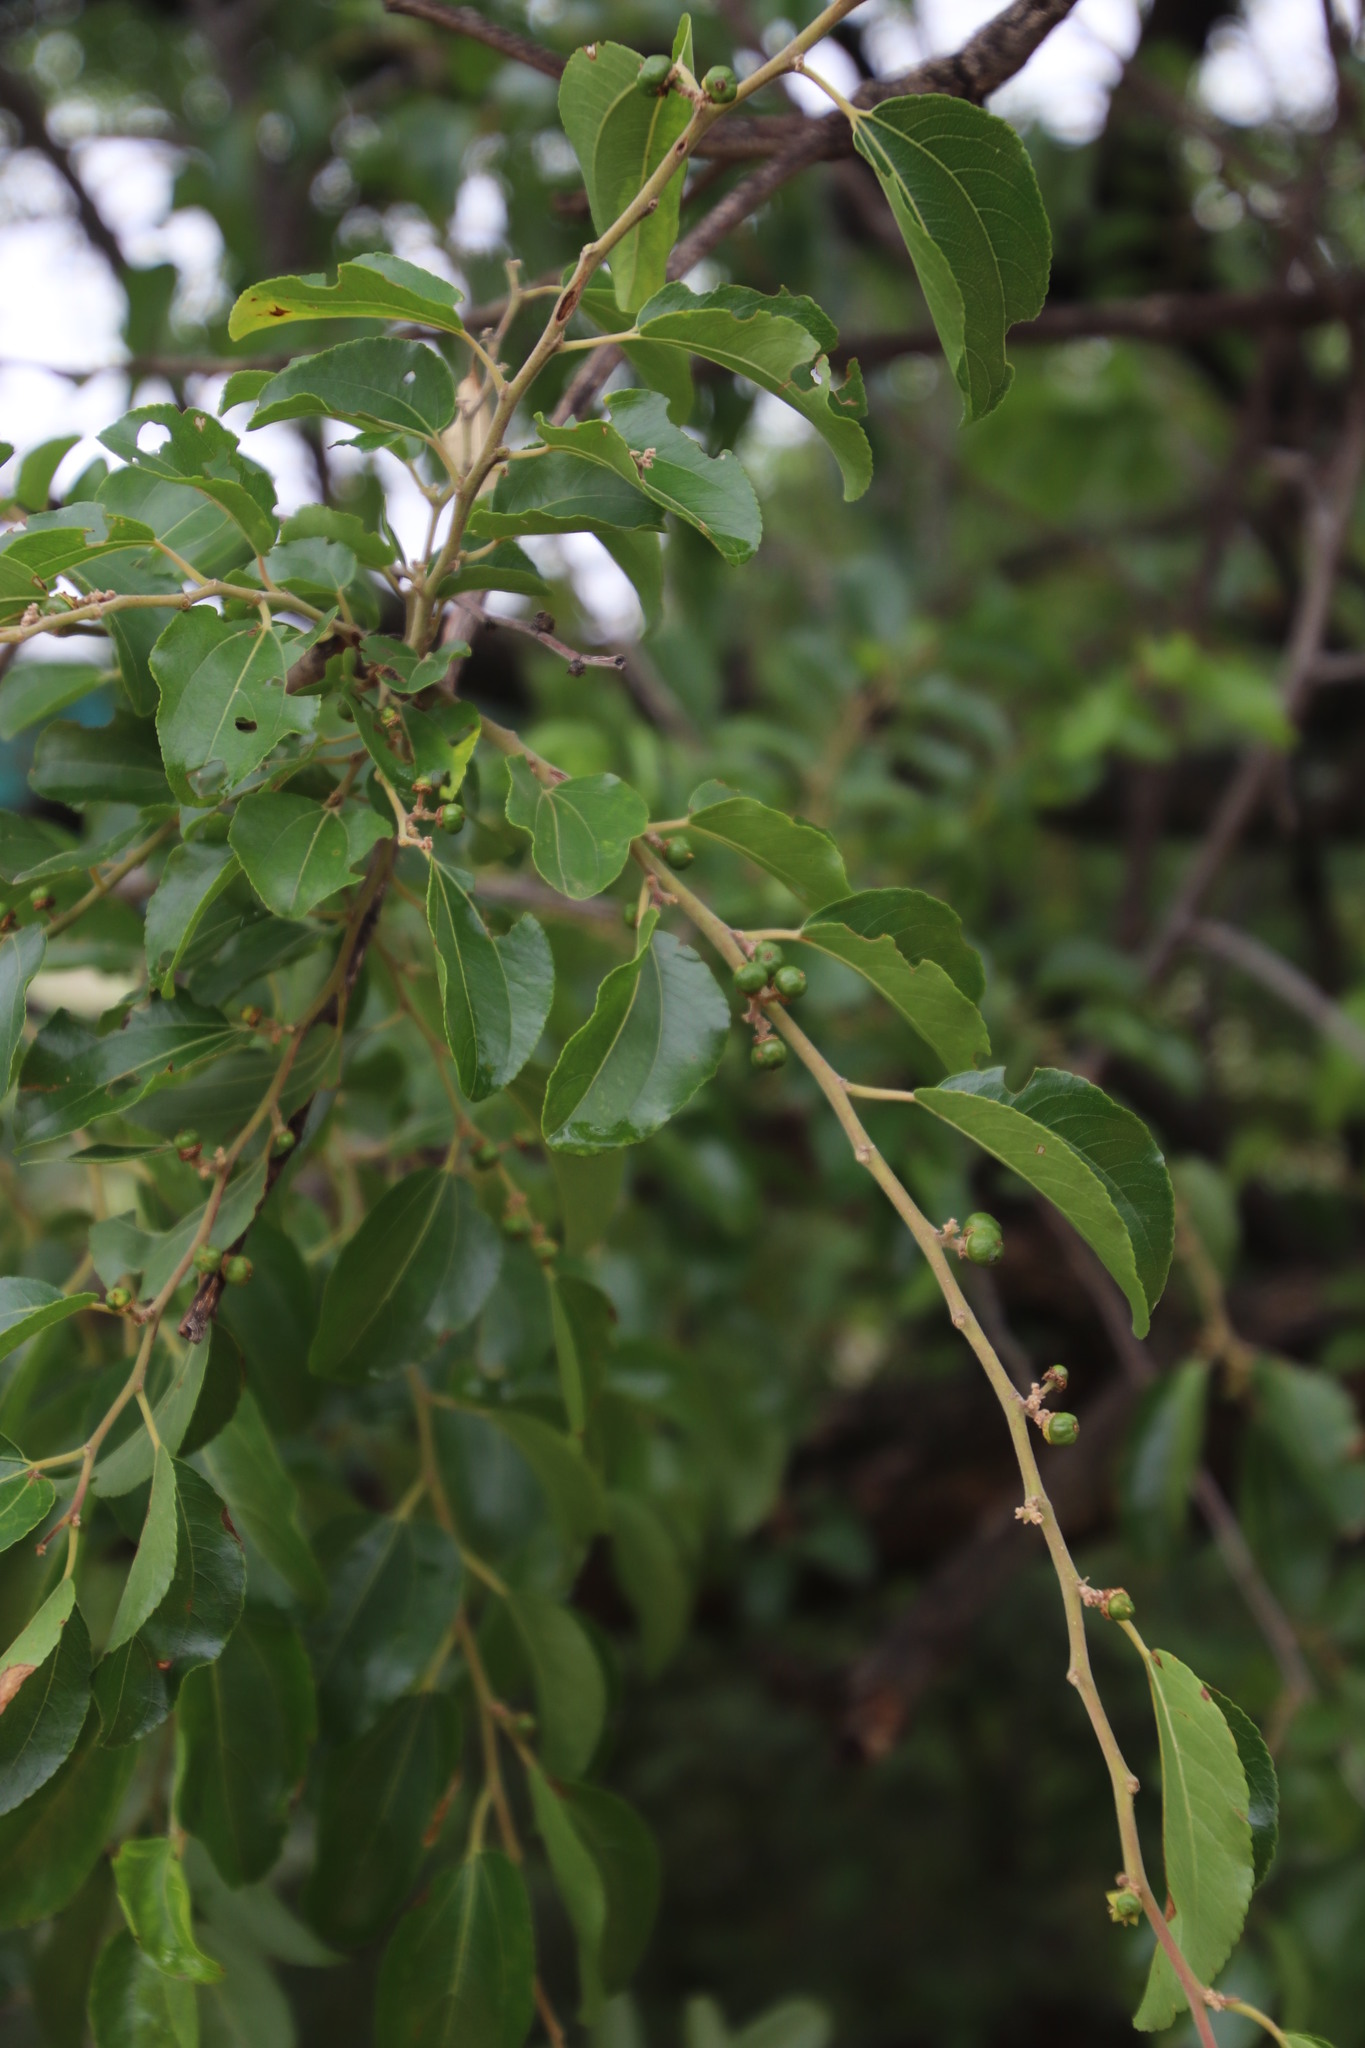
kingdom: Plantae
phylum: Tracheophyta
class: Magnoliopsida
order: Rosales
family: Rhamnaceae
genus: Ziziphus
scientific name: Ziziphus mucronata
